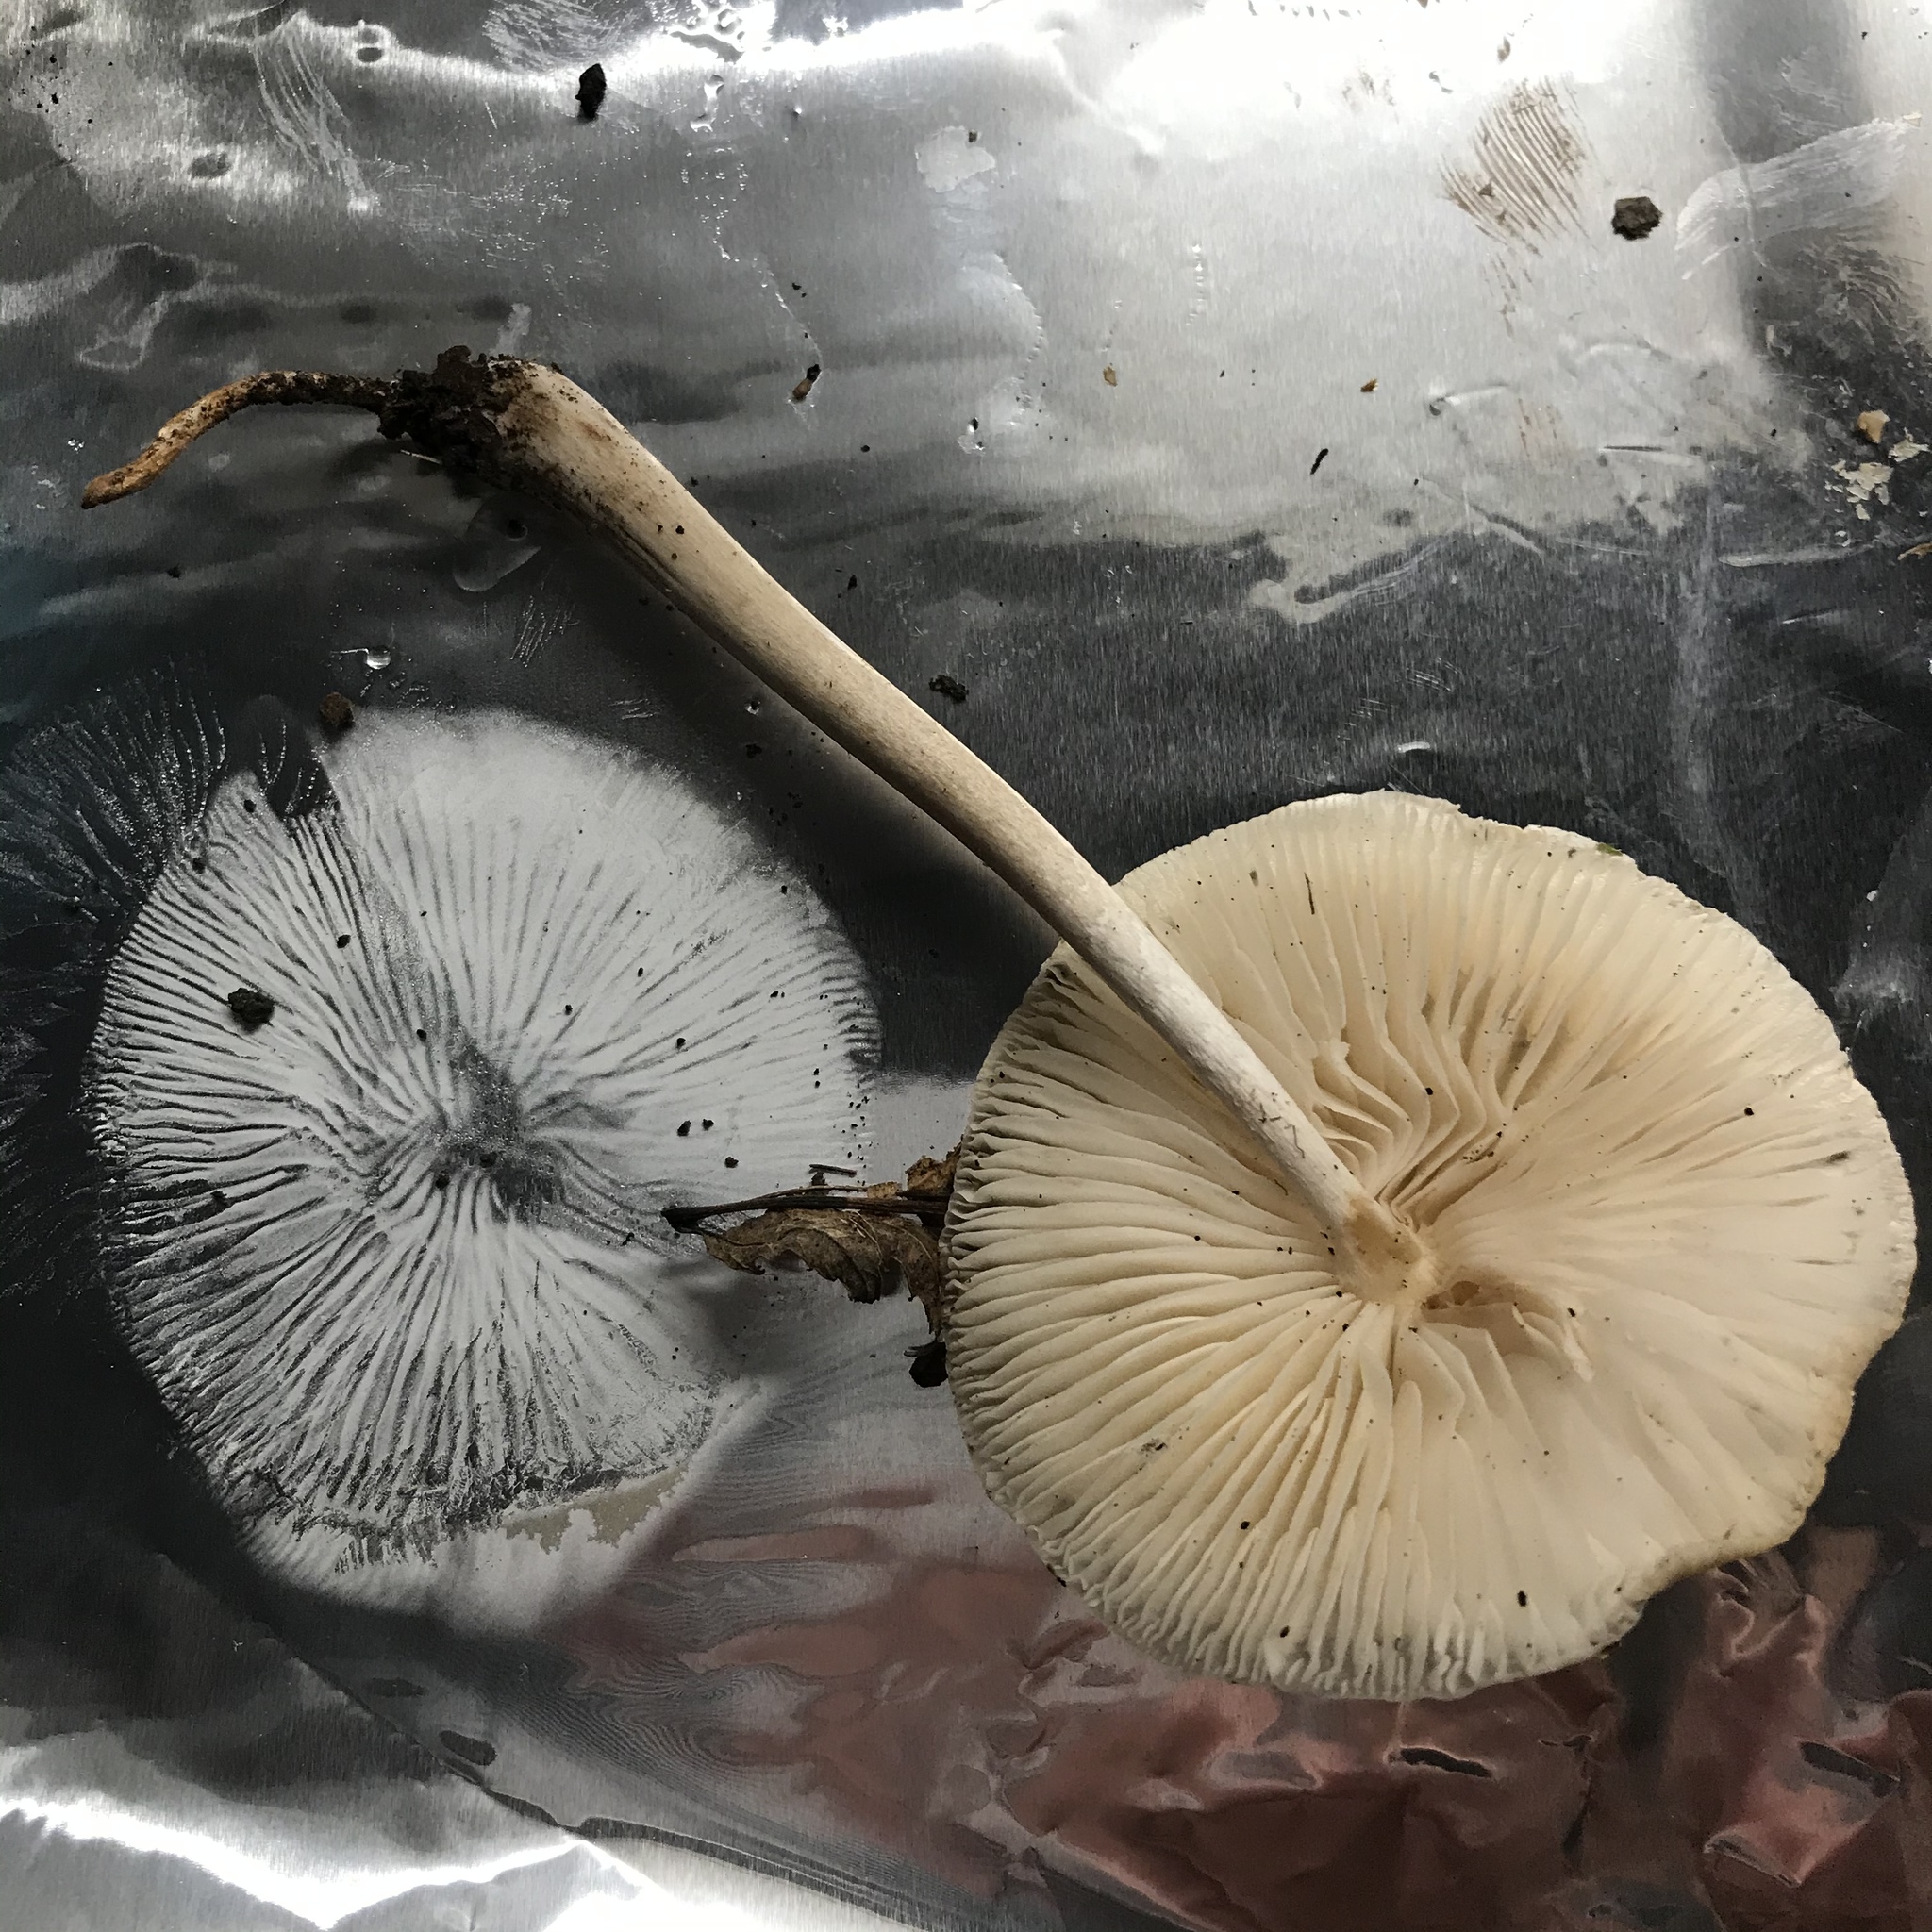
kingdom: Fungi
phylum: Basidiomycota
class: Agaricomycetes
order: Agaricales
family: Physalacriaceae
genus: Hymenopellis
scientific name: Hymenopellis megalospora
